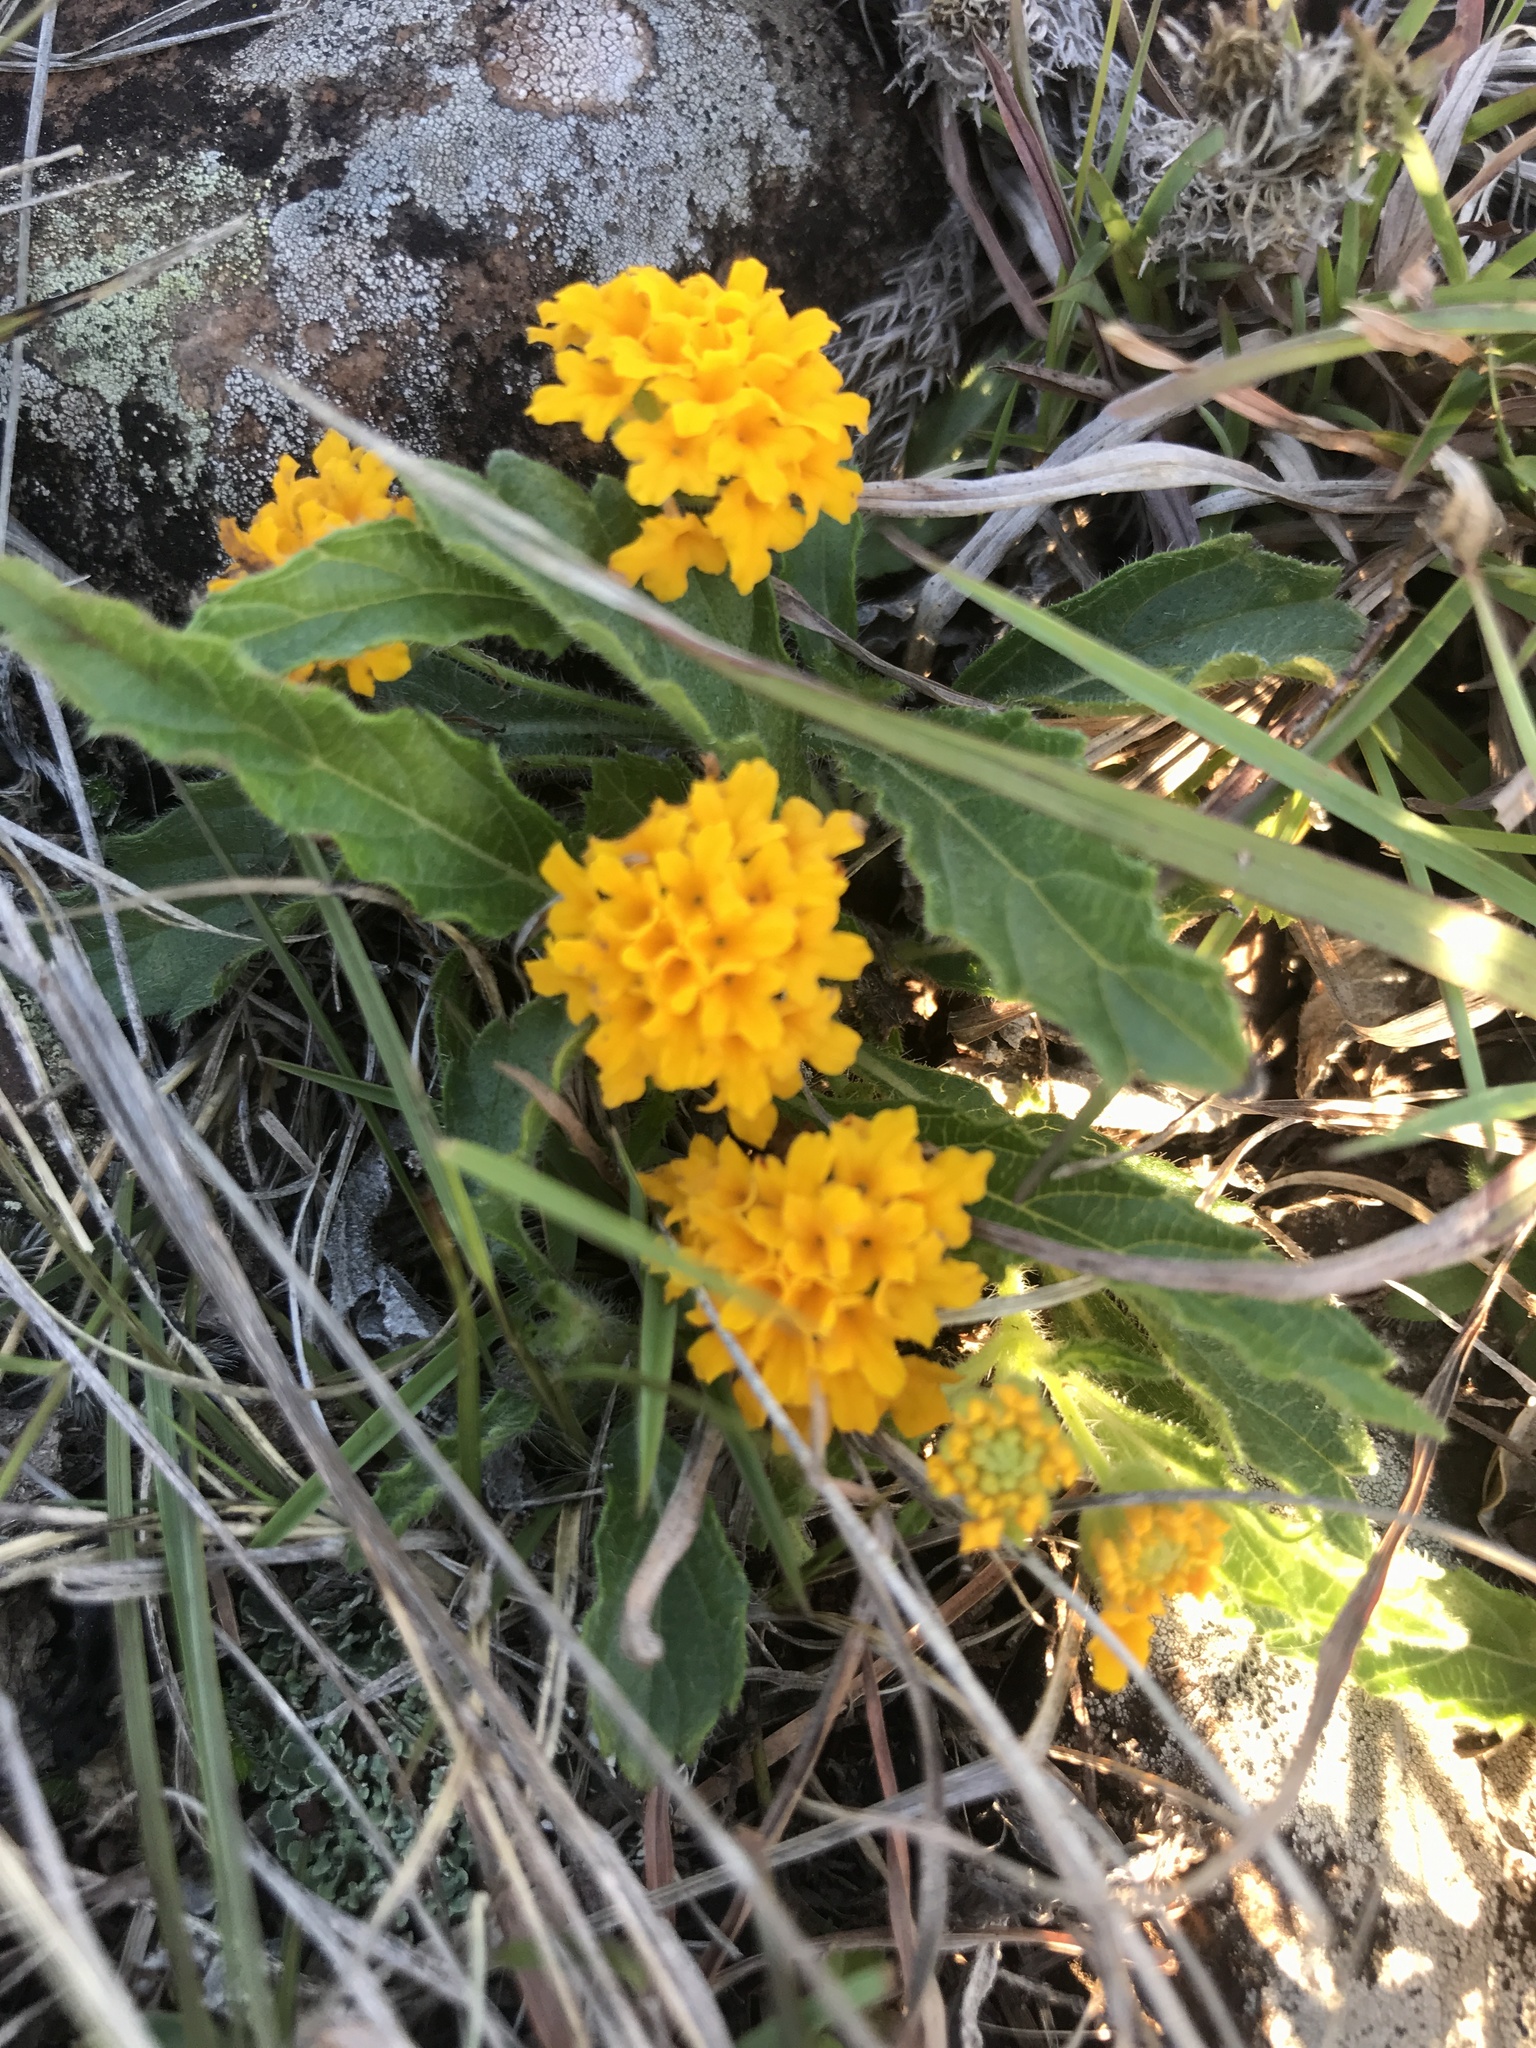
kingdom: Plantae
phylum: Tracheophyta
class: Magnoliopsida
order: Lamiales
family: Verbenaceae
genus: Lippia
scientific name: Lippia coarctata
